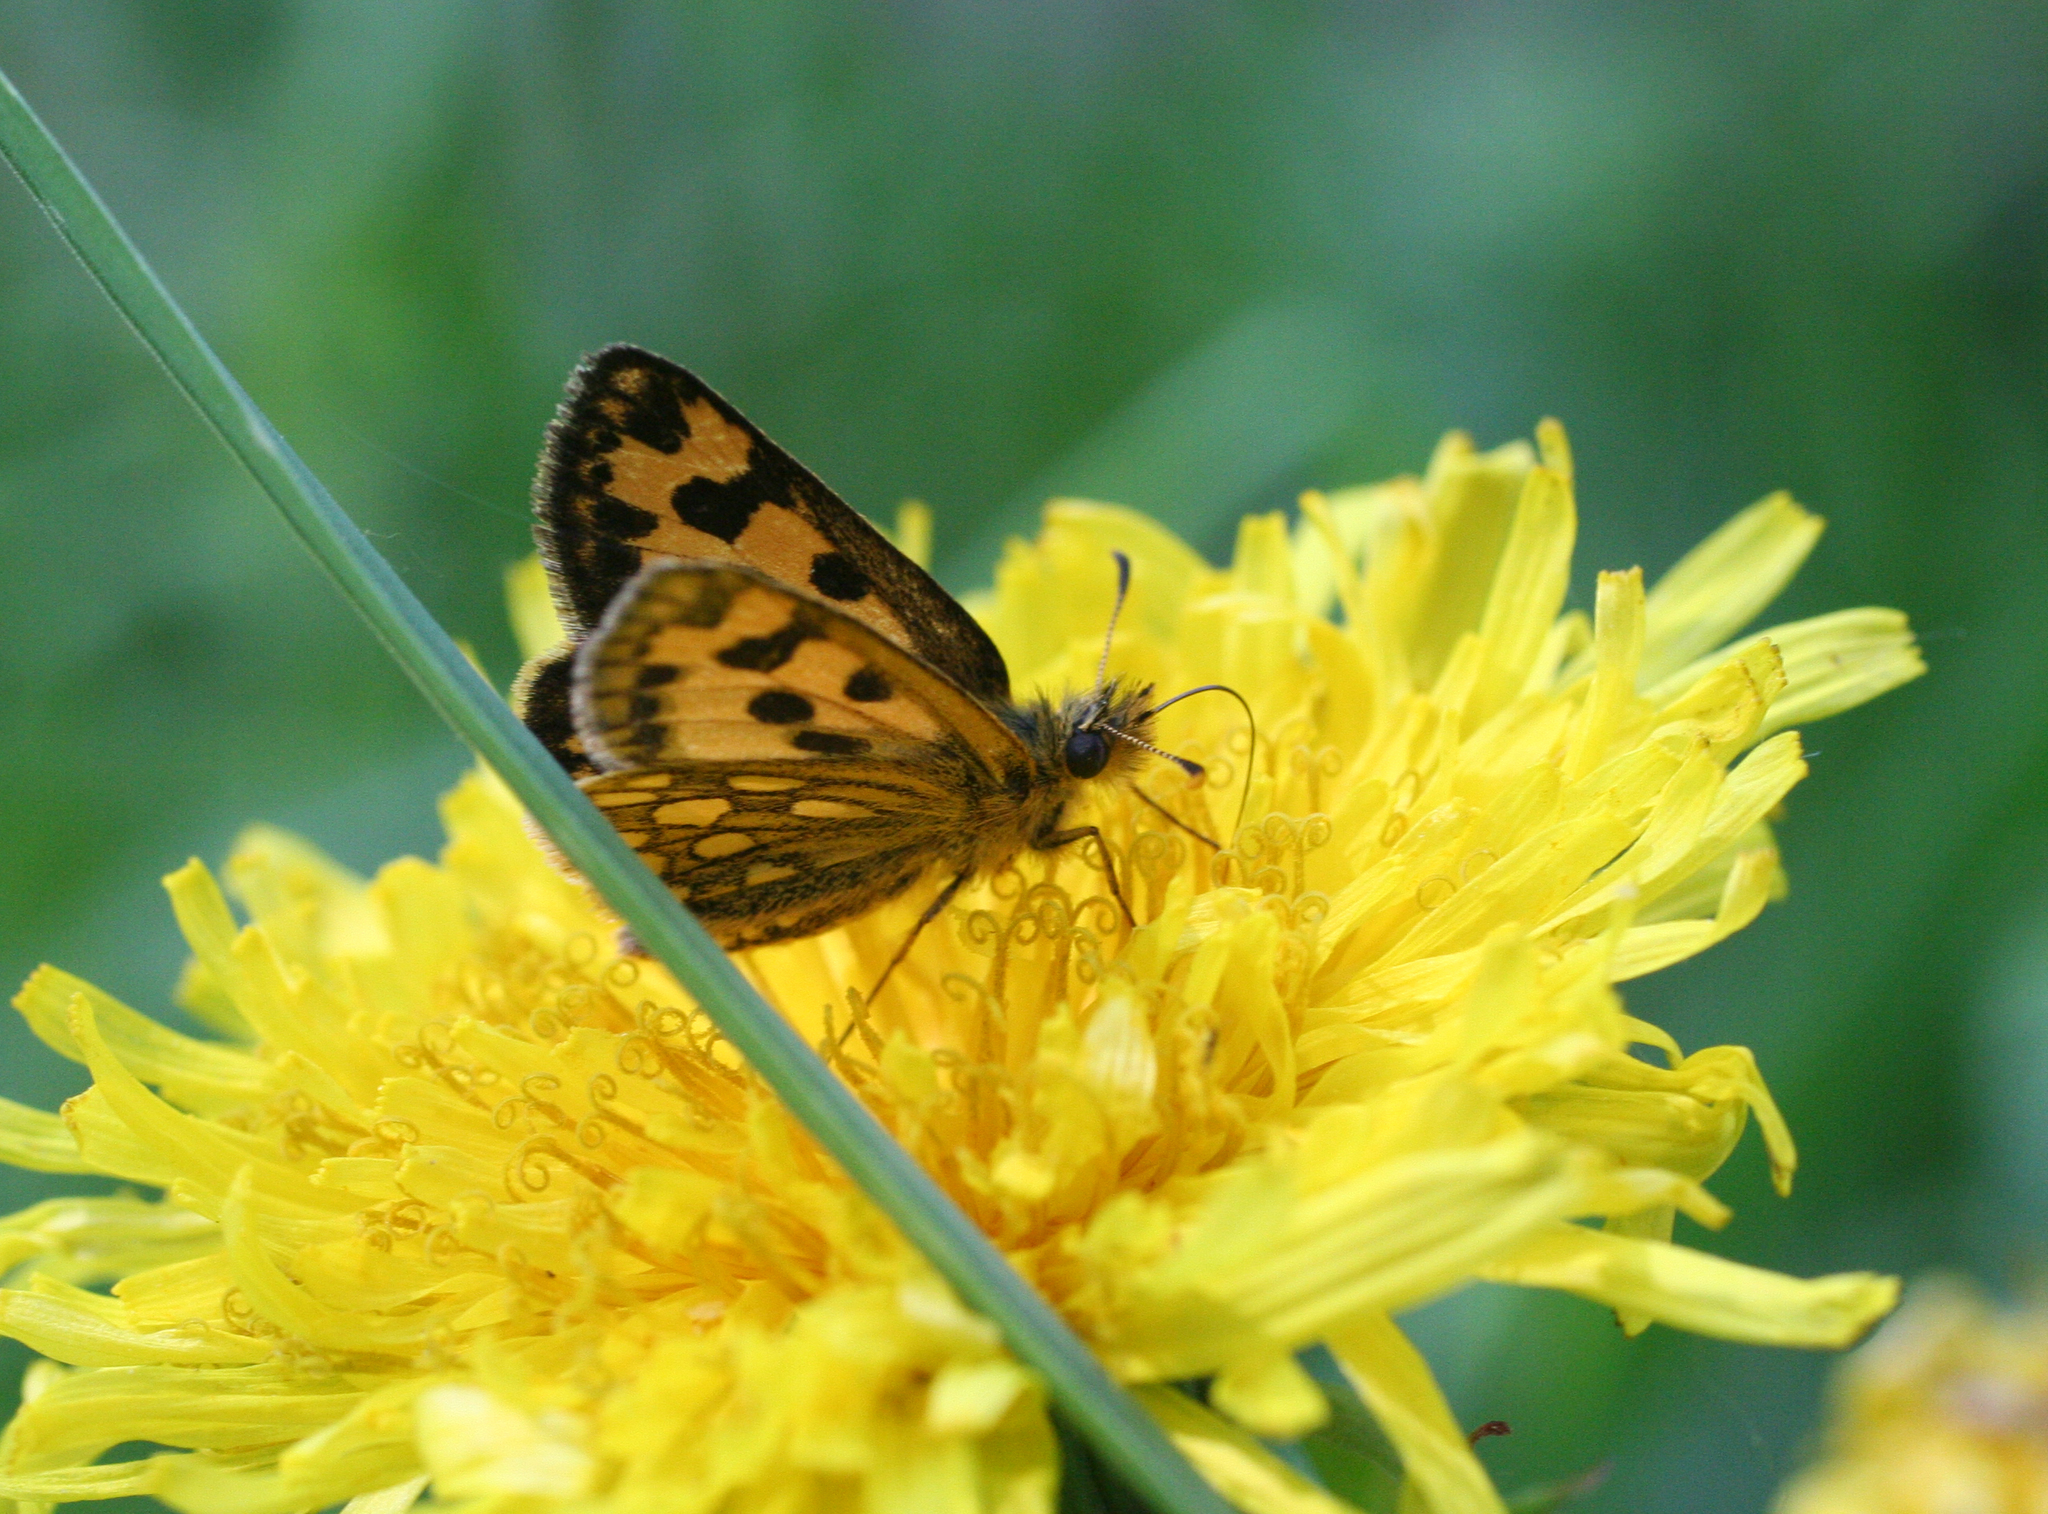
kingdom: Animalia
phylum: Arthropoda
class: Insecta
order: Lepidoptera
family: Hesperiidae
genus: Carterocephalus
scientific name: Carterocephalus silvicola
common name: Northern chequered skipper
